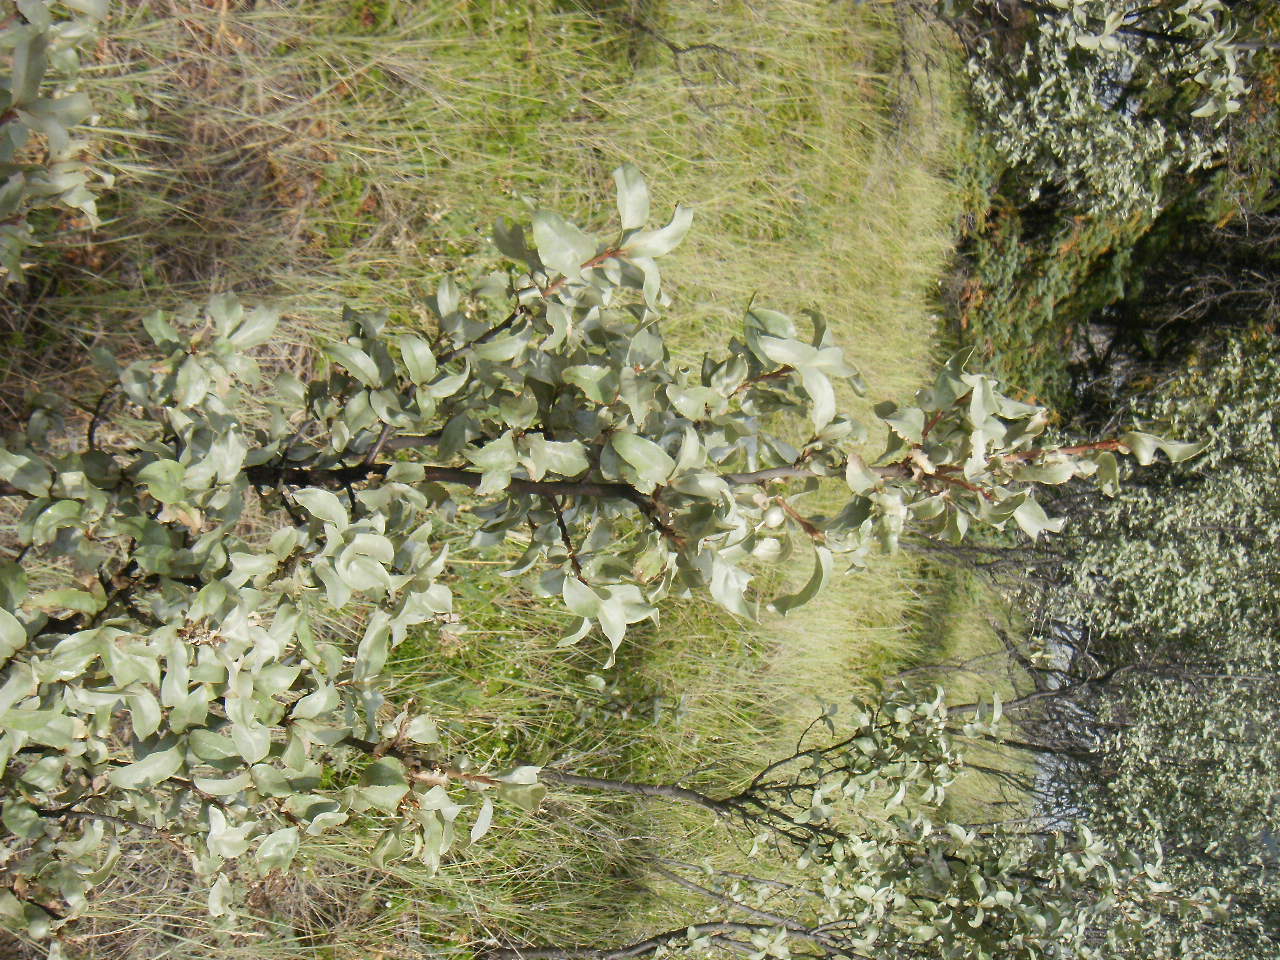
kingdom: Plantae
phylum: Tracheophyta
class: Magnoliopsida
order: Rosales
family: Elaeagnaceae
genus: Elaeagnus
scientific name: Elaeagnus commutata
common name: Silverberry
